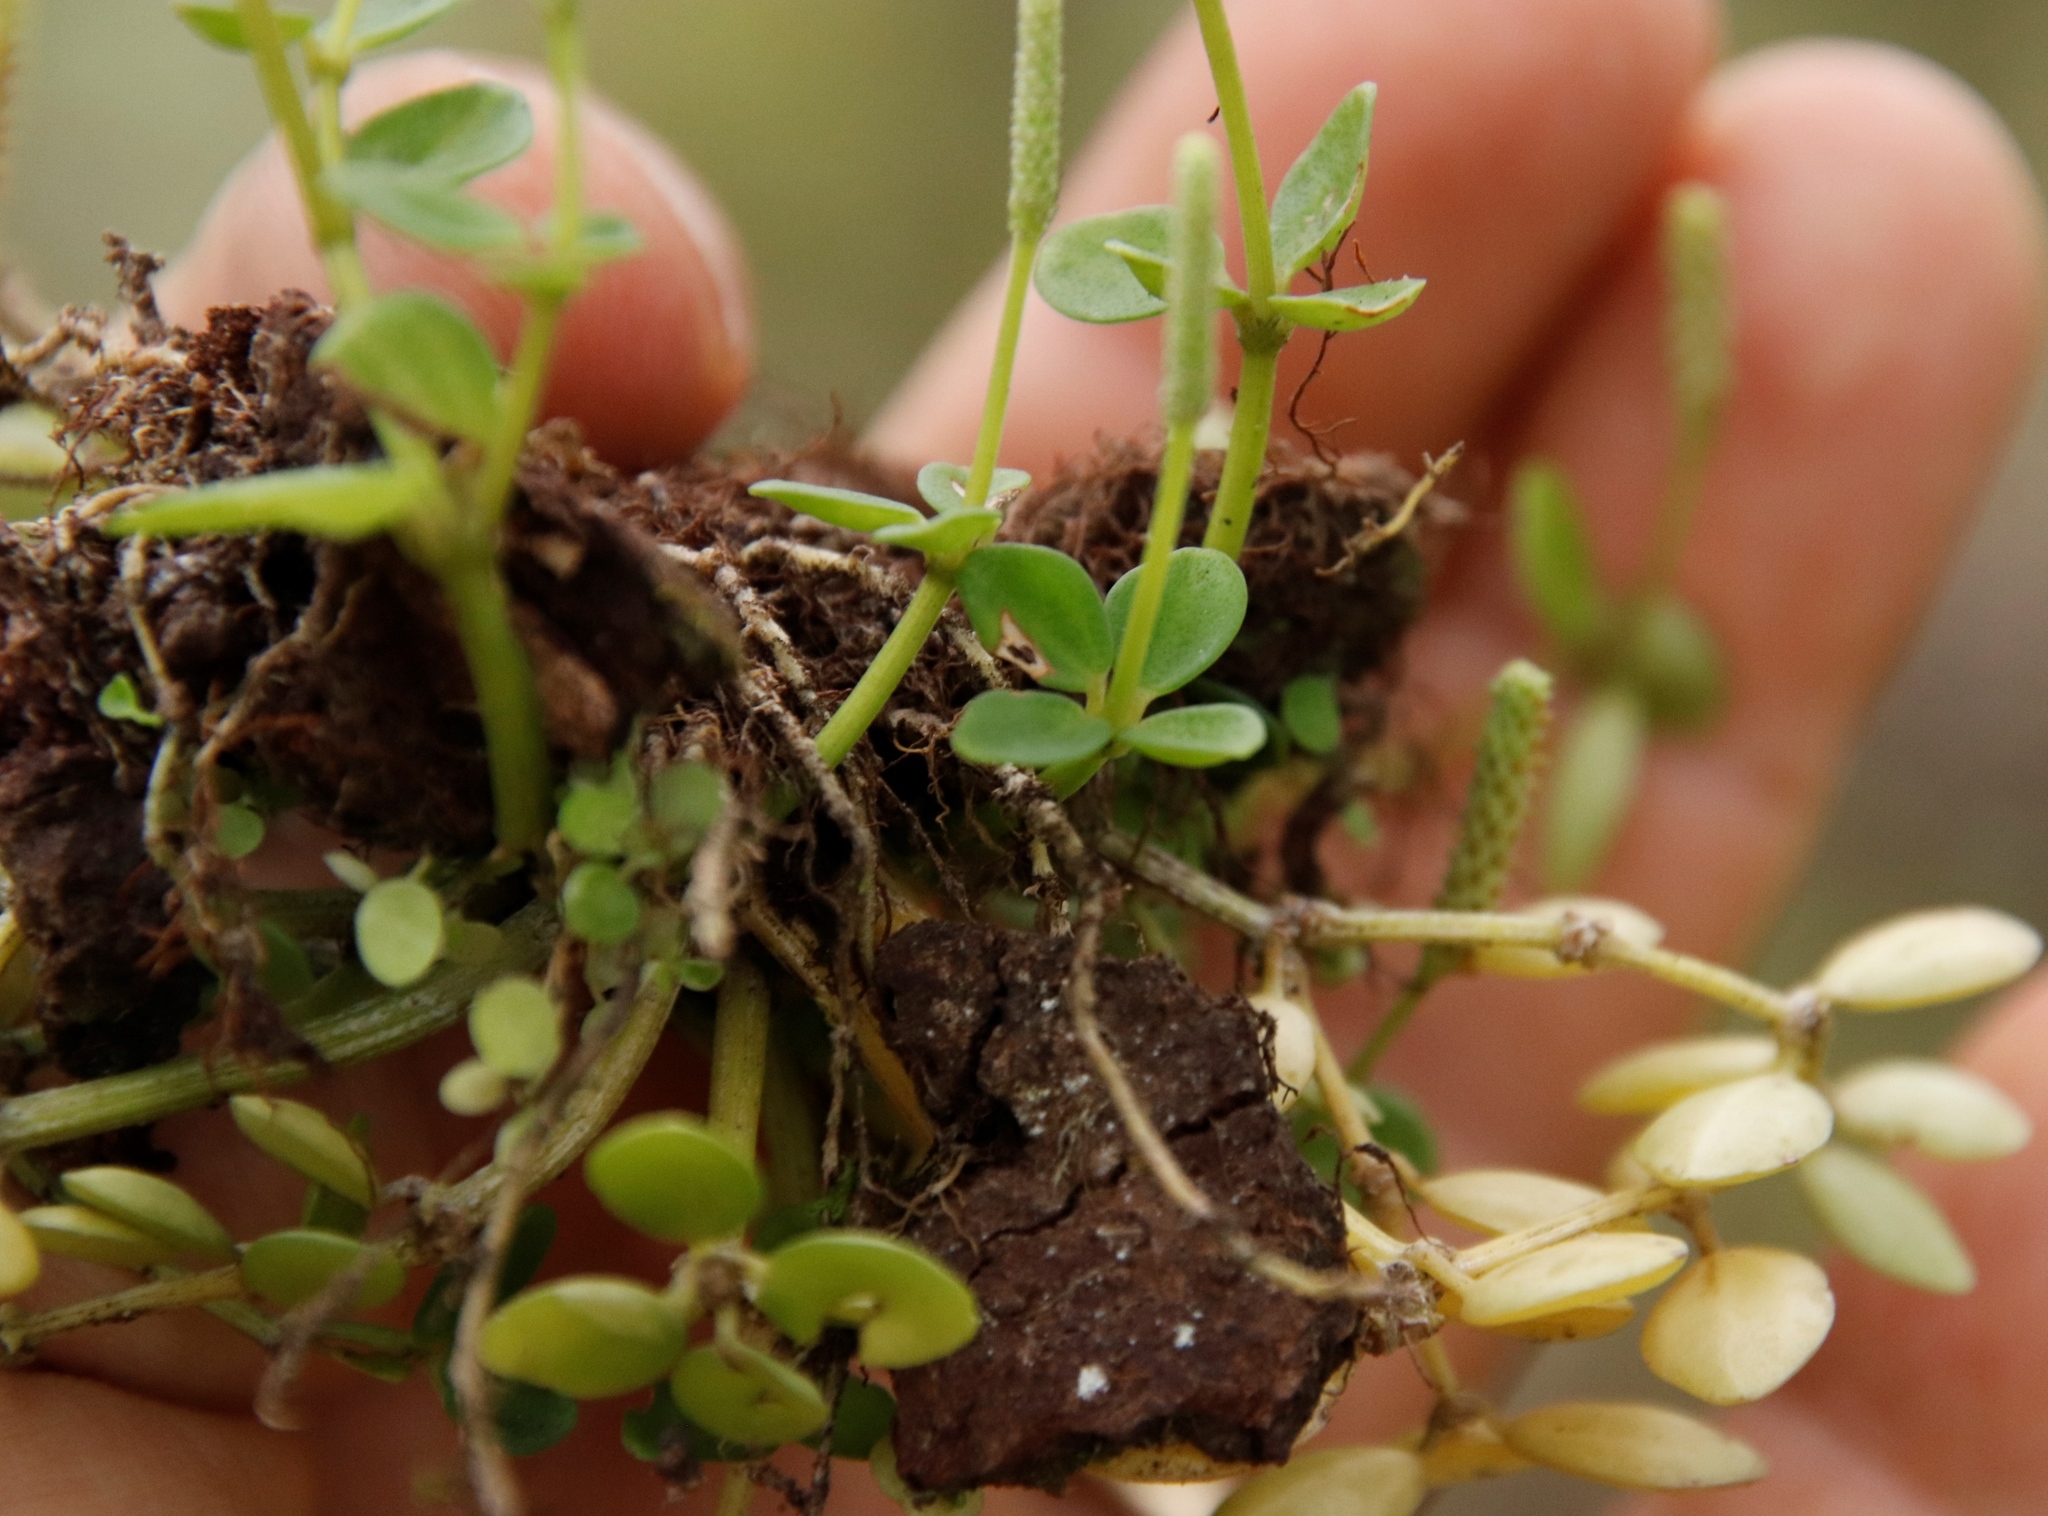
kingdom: Plantae
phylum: Tracheophyta
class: Magnoliopsida
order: Piperales
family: Piperaceae
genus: Peperomia
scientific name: Peperomia tetraphylla
